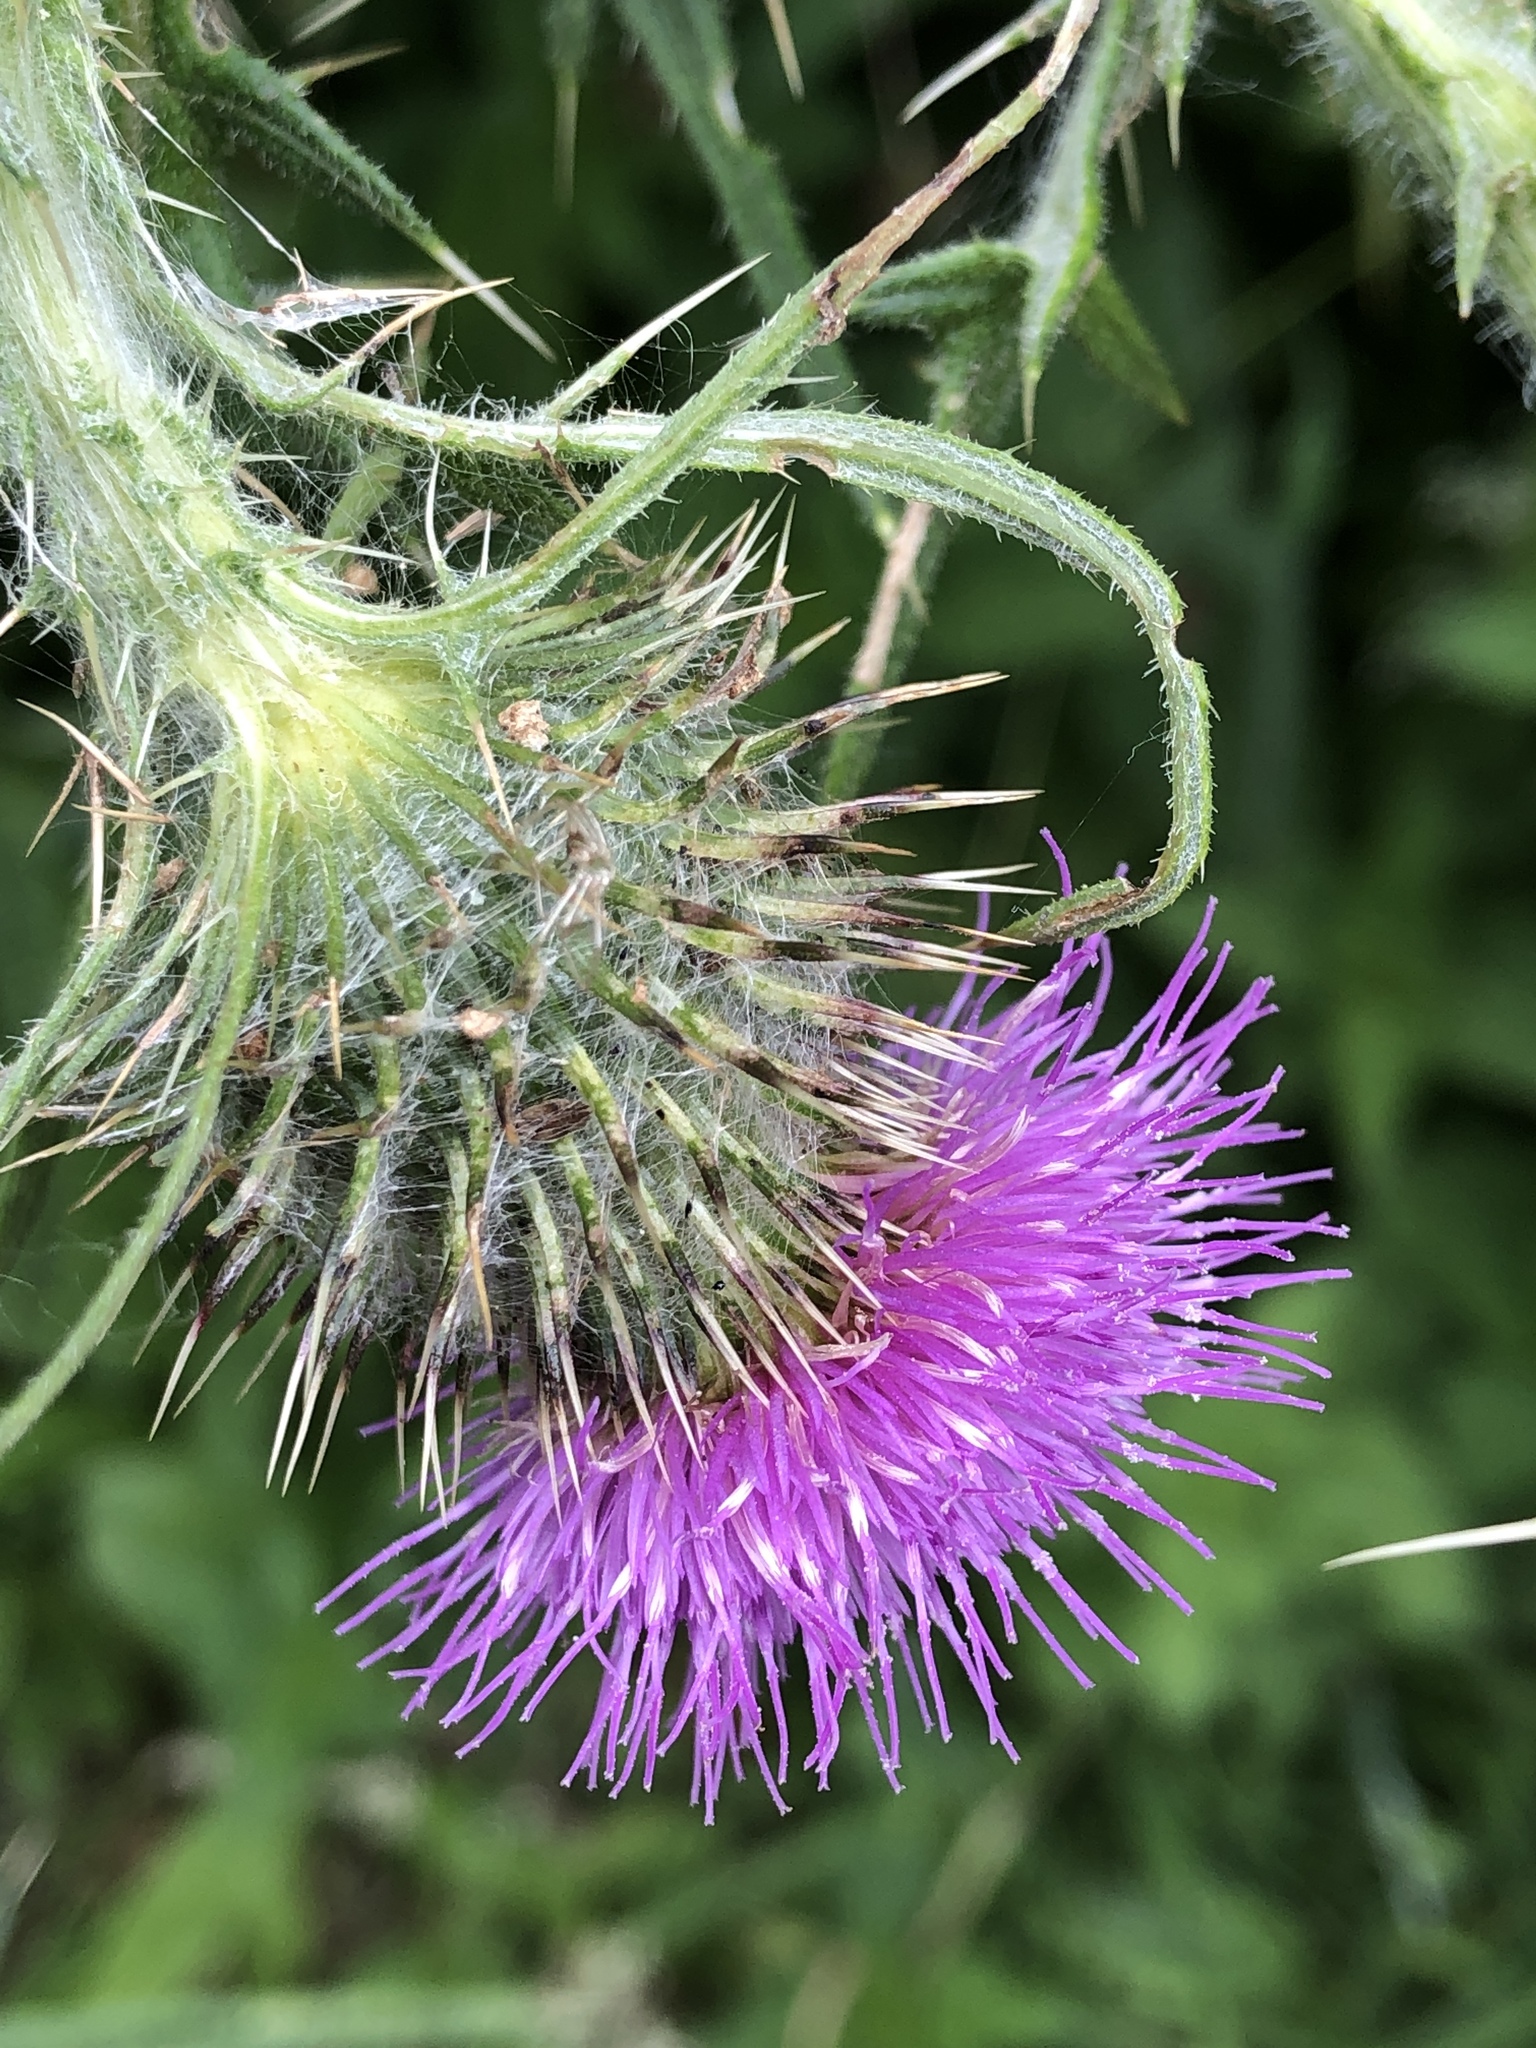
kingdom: Plantae
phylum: Tracheophyta
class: Magnoliopsida
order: Asterales
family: Asteraceae
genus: Cirsium
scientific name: Cirsium vulgare
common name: Bull thistle
